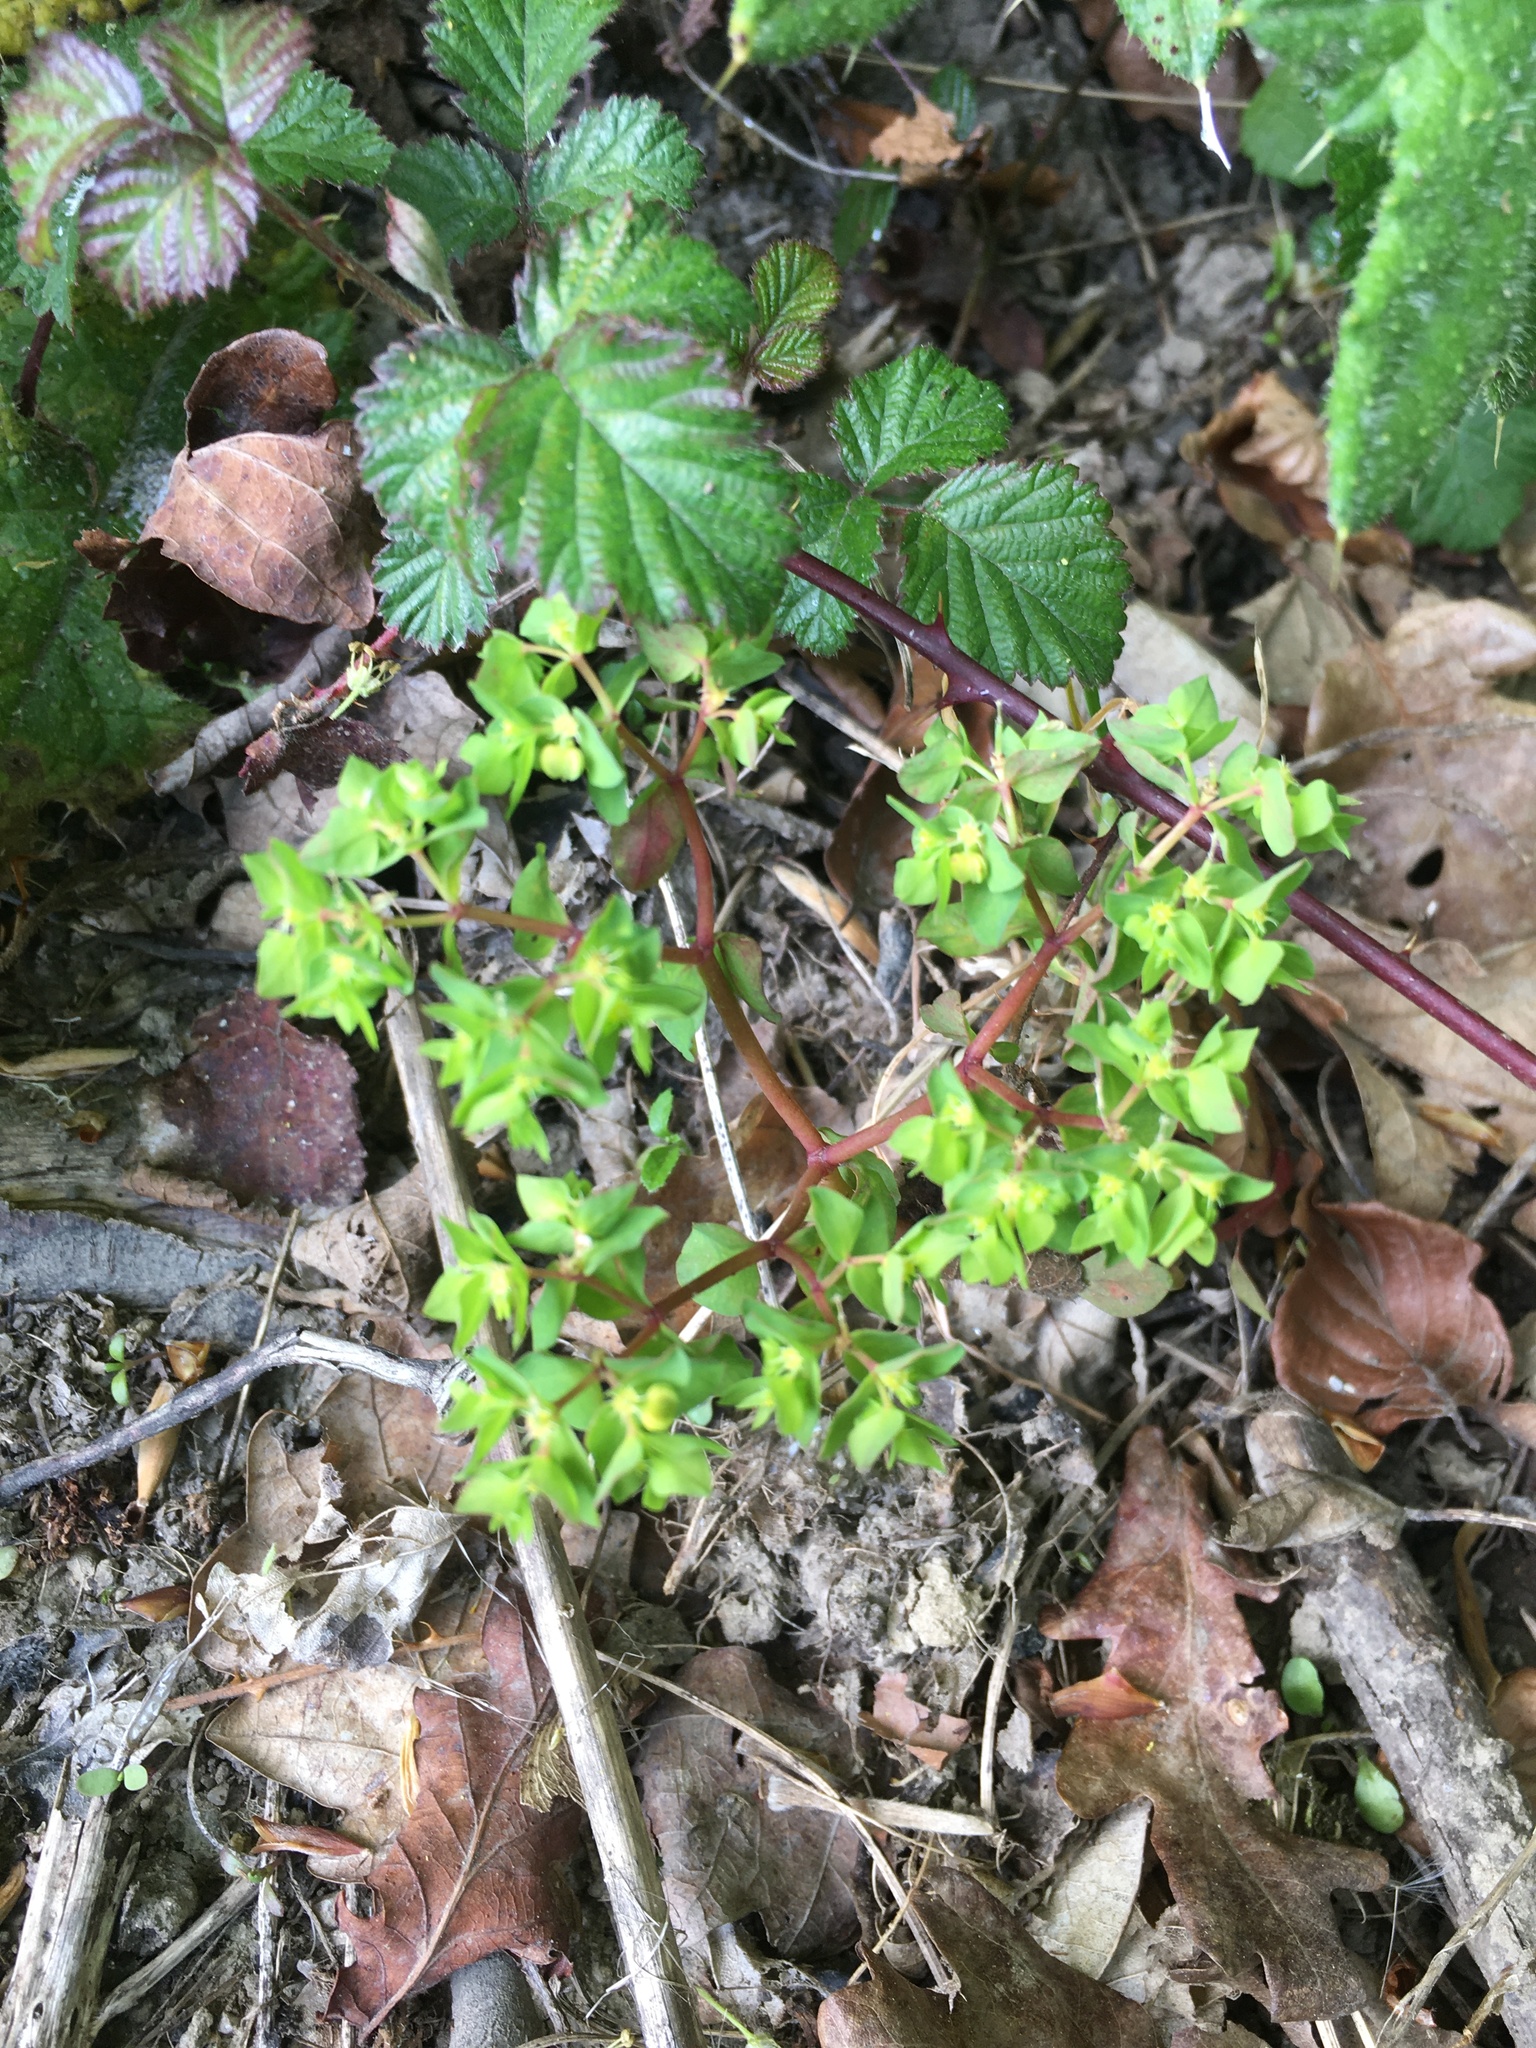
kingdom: Plantae
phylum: Tracheophyta
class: Magnoliopsida
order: Malpighiales
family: Euphorbiaceae
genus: Euphorbia
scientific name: Euphorbia peplus
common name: Petty spurge
